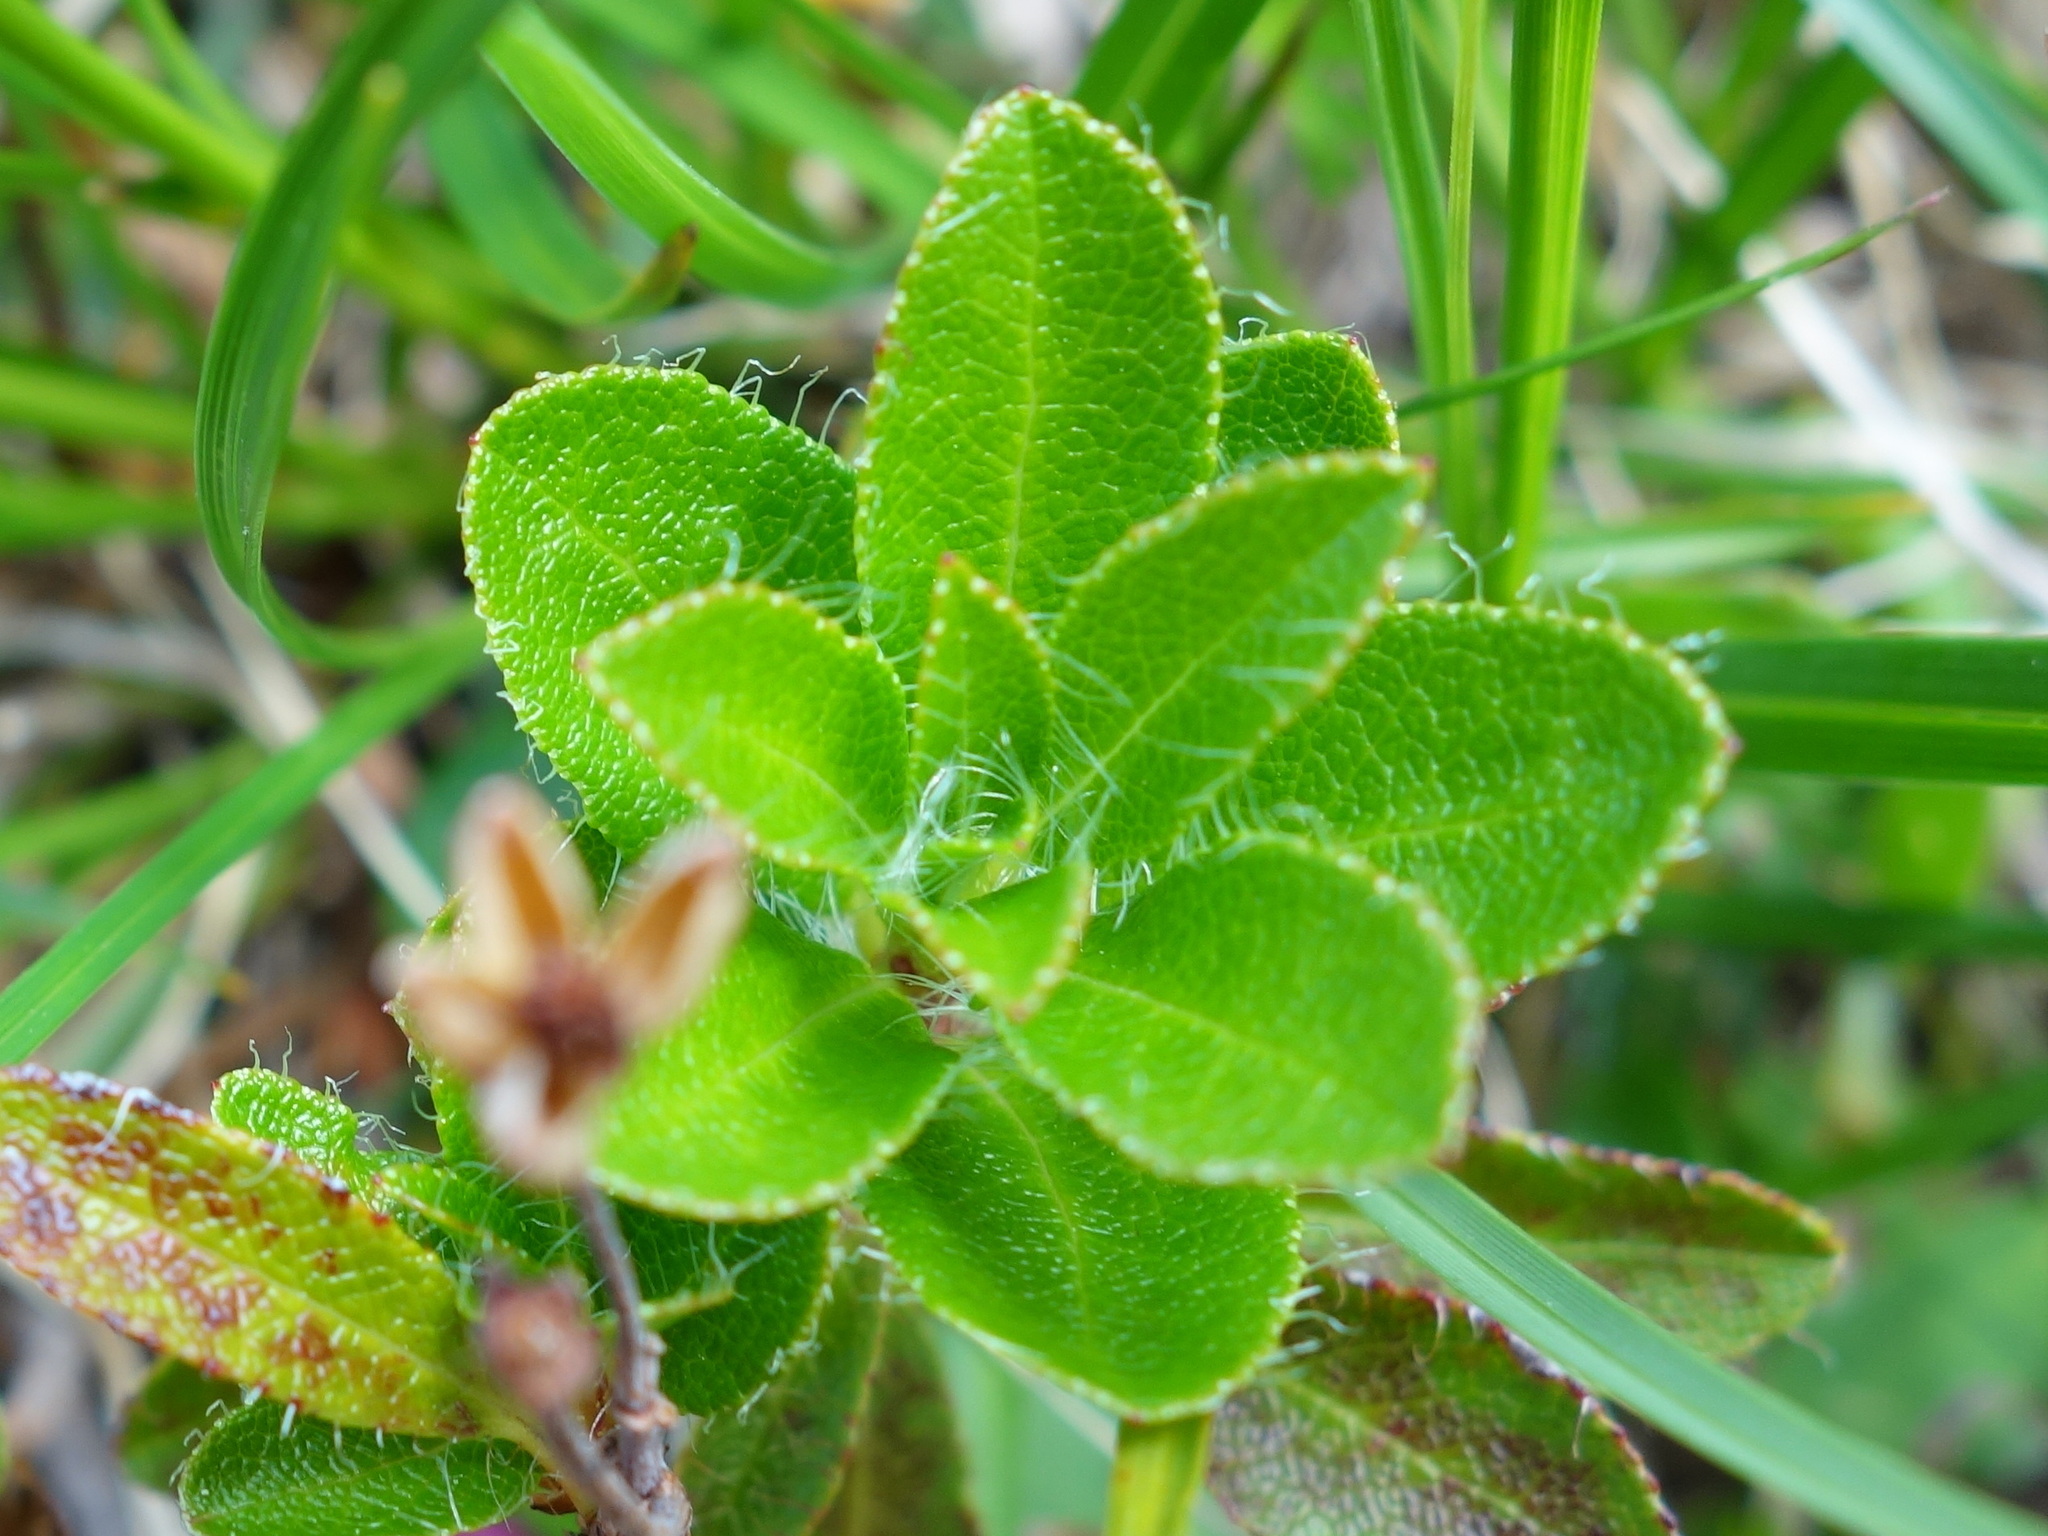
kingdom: Plantae
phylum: Tracheophyta
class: Magnoliopsida
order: Ericales
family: Ericaceae
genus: Rhododendron
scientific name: Rhododendron hirsutum
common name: Hairy alpenrose
